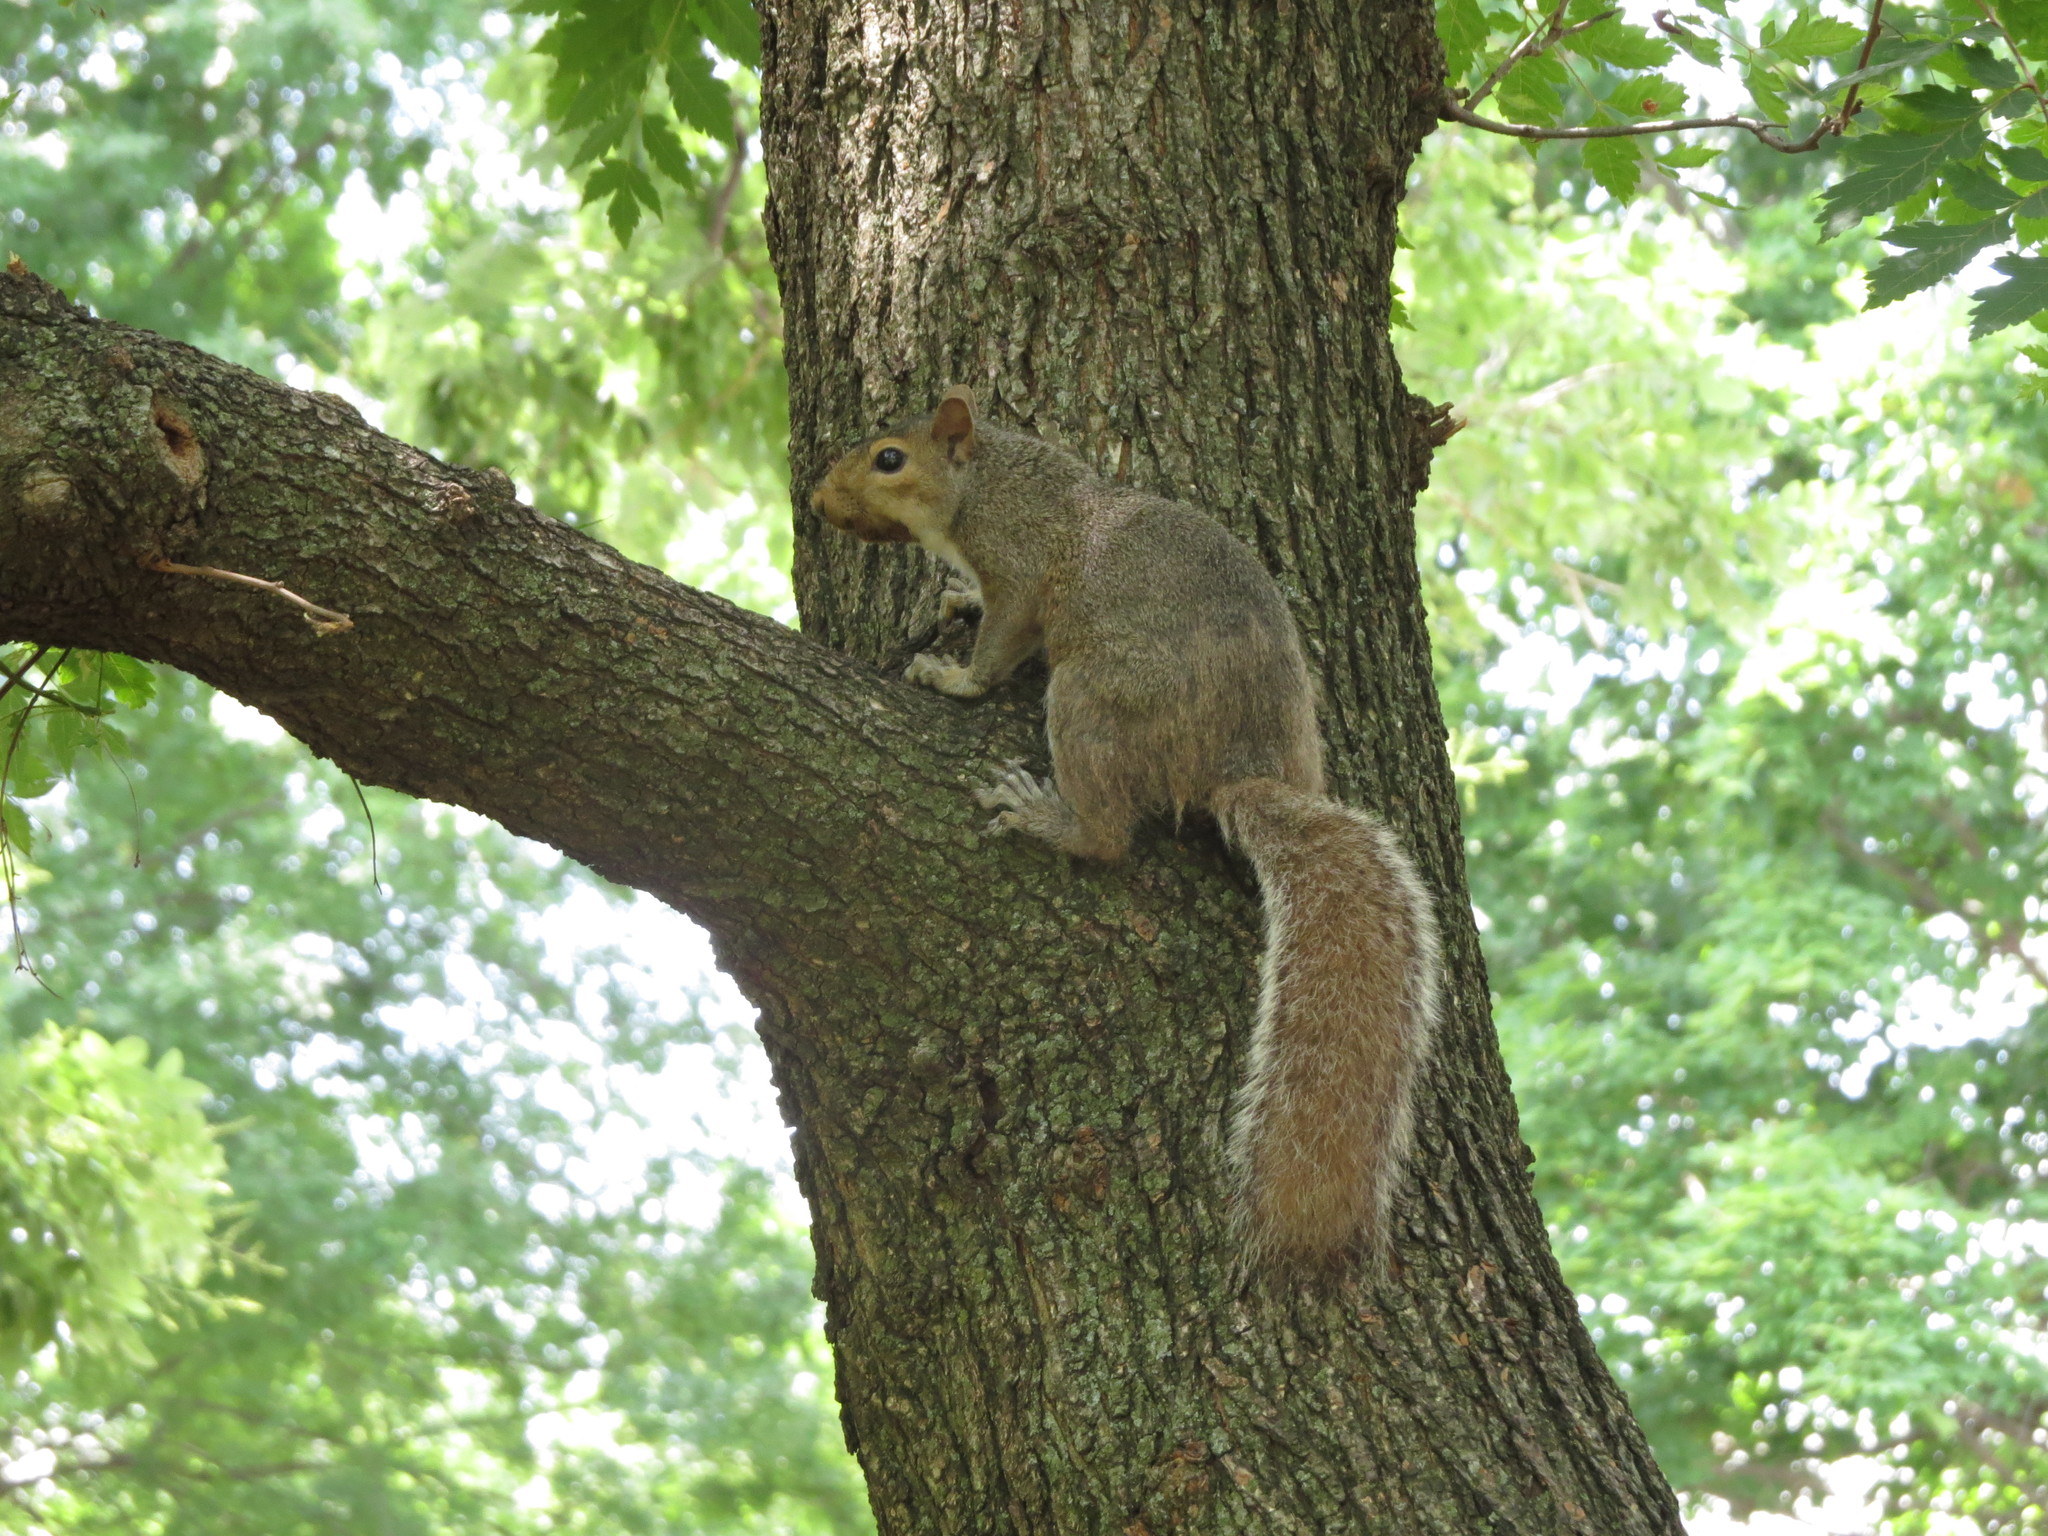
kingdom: Animalia
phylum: Chordata
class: Mammalia
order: Rodentia
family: Sciuridae
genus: Sciurus
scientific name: Sciurus carolinensis
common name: Eastern gray squirrel
